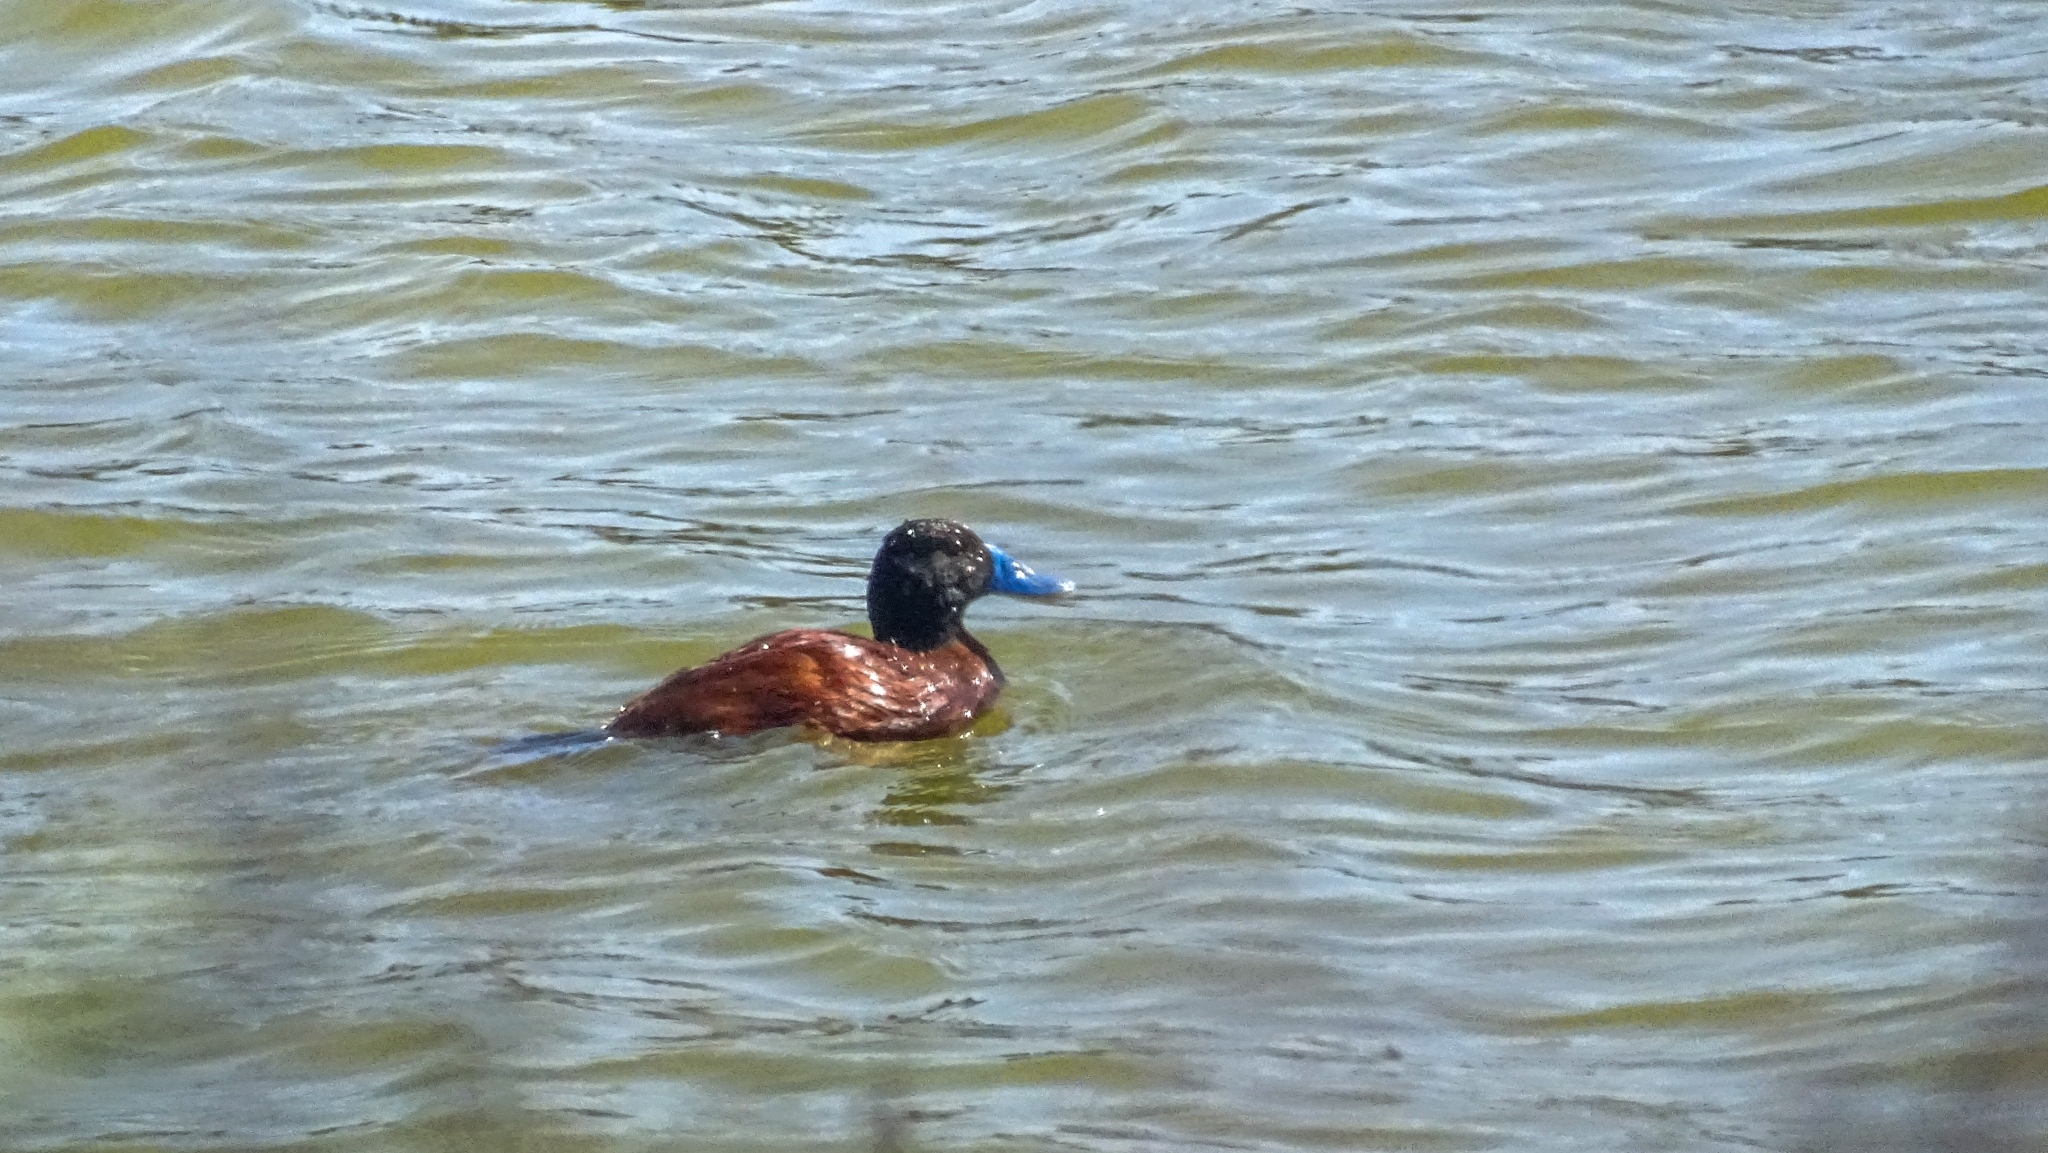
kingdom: Animalia
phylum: Chordata
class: Aves
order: Anseriformes
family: Anatidae
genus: Oxyura
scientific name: Oxyura vittata
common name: Lake duck
